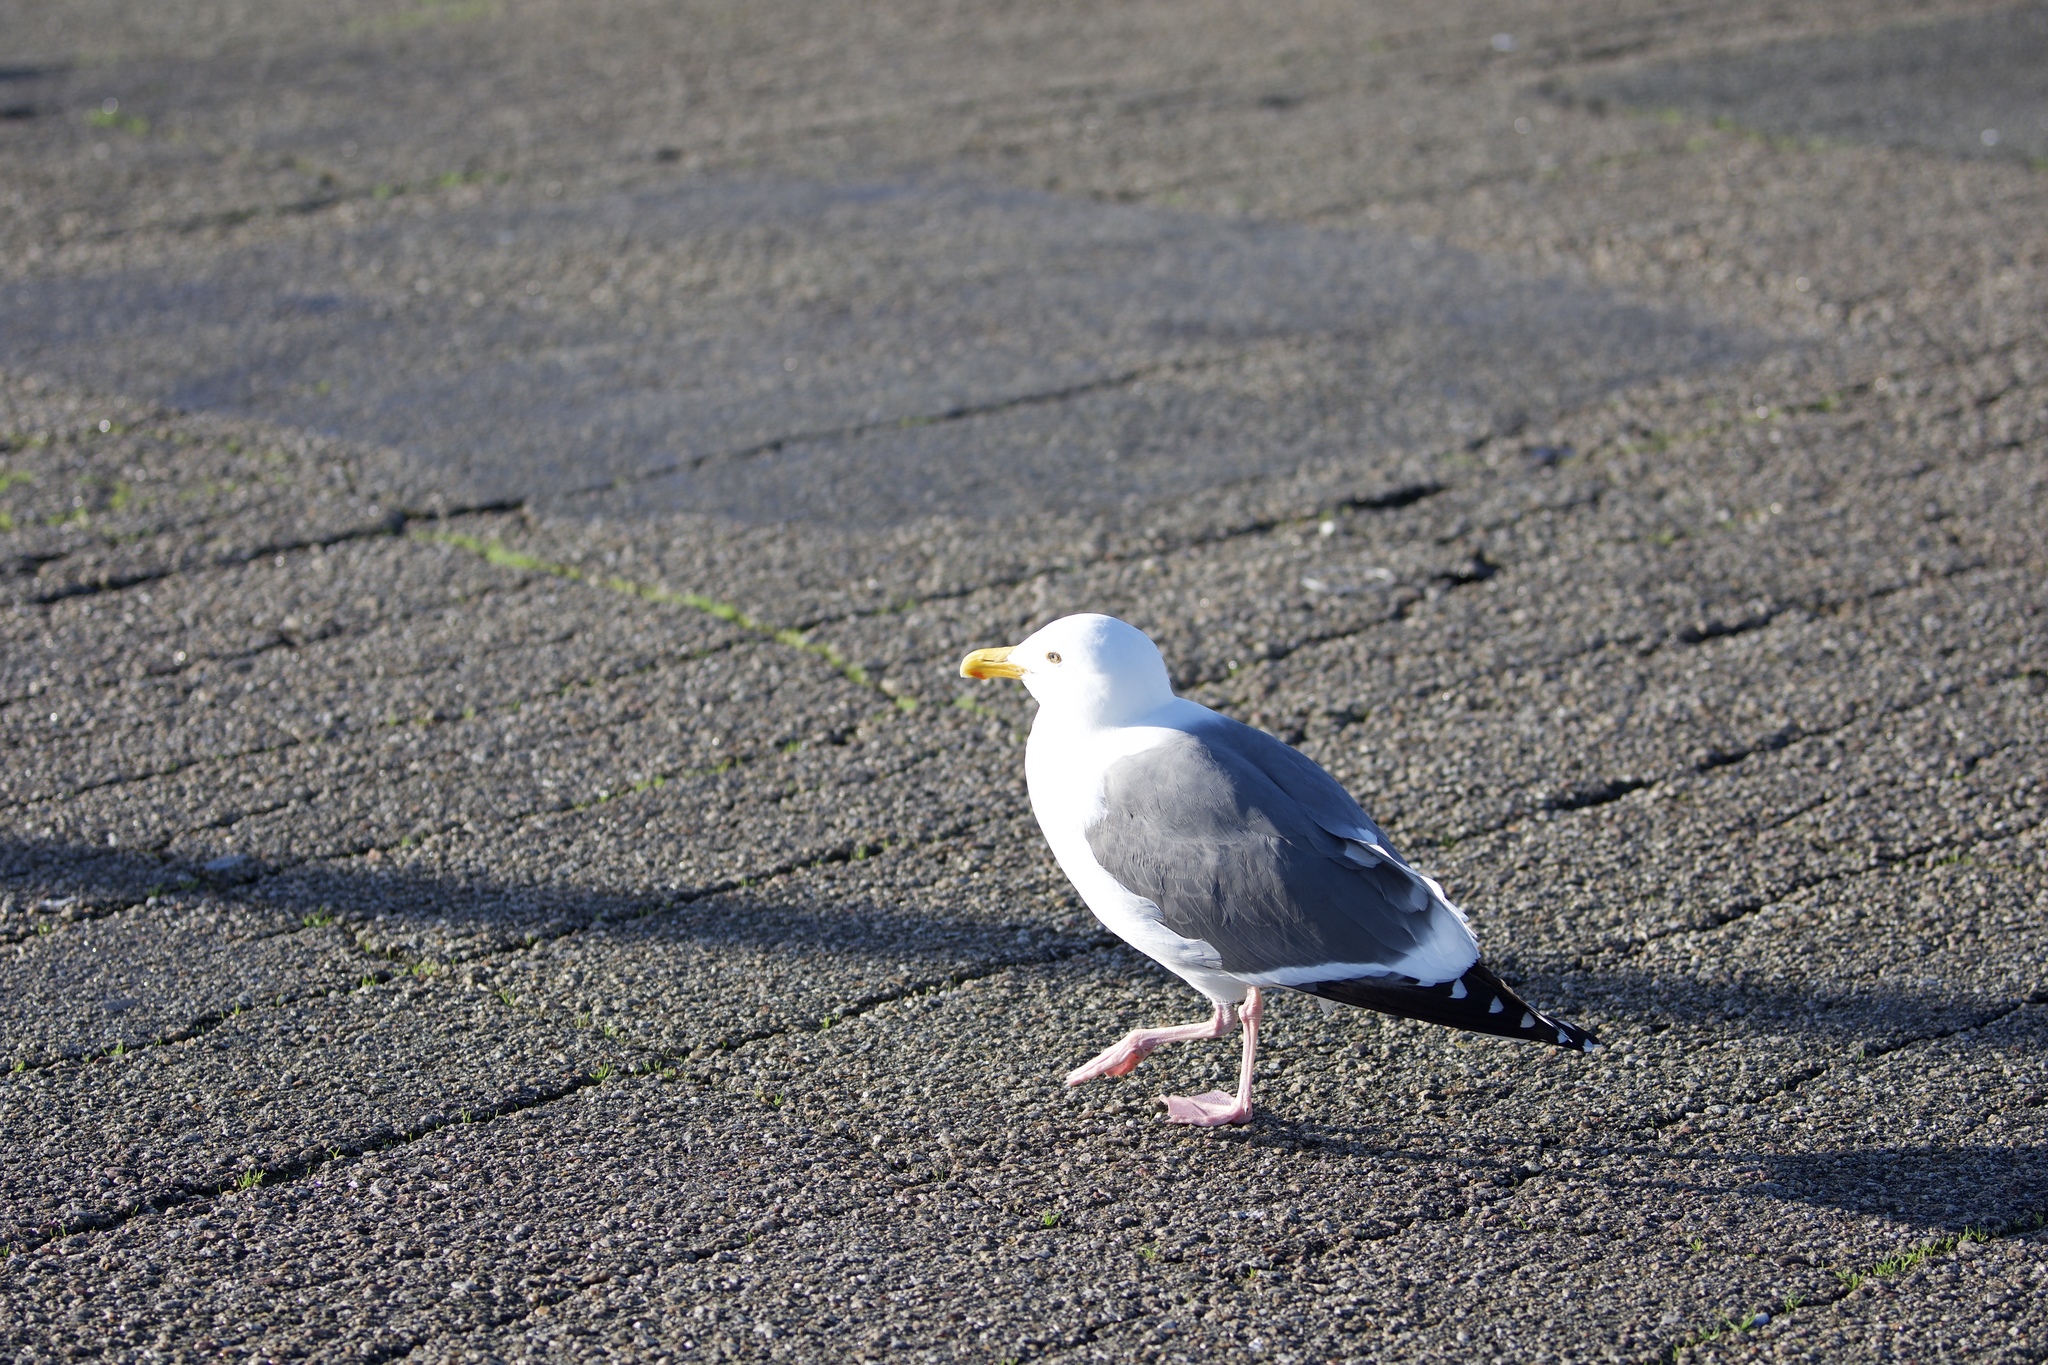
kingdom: Animalia
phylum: Chordata
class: Aves
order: Charadriiformes
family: Laridae
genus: Larus
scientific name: Larus occidentalis
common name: Western gull
